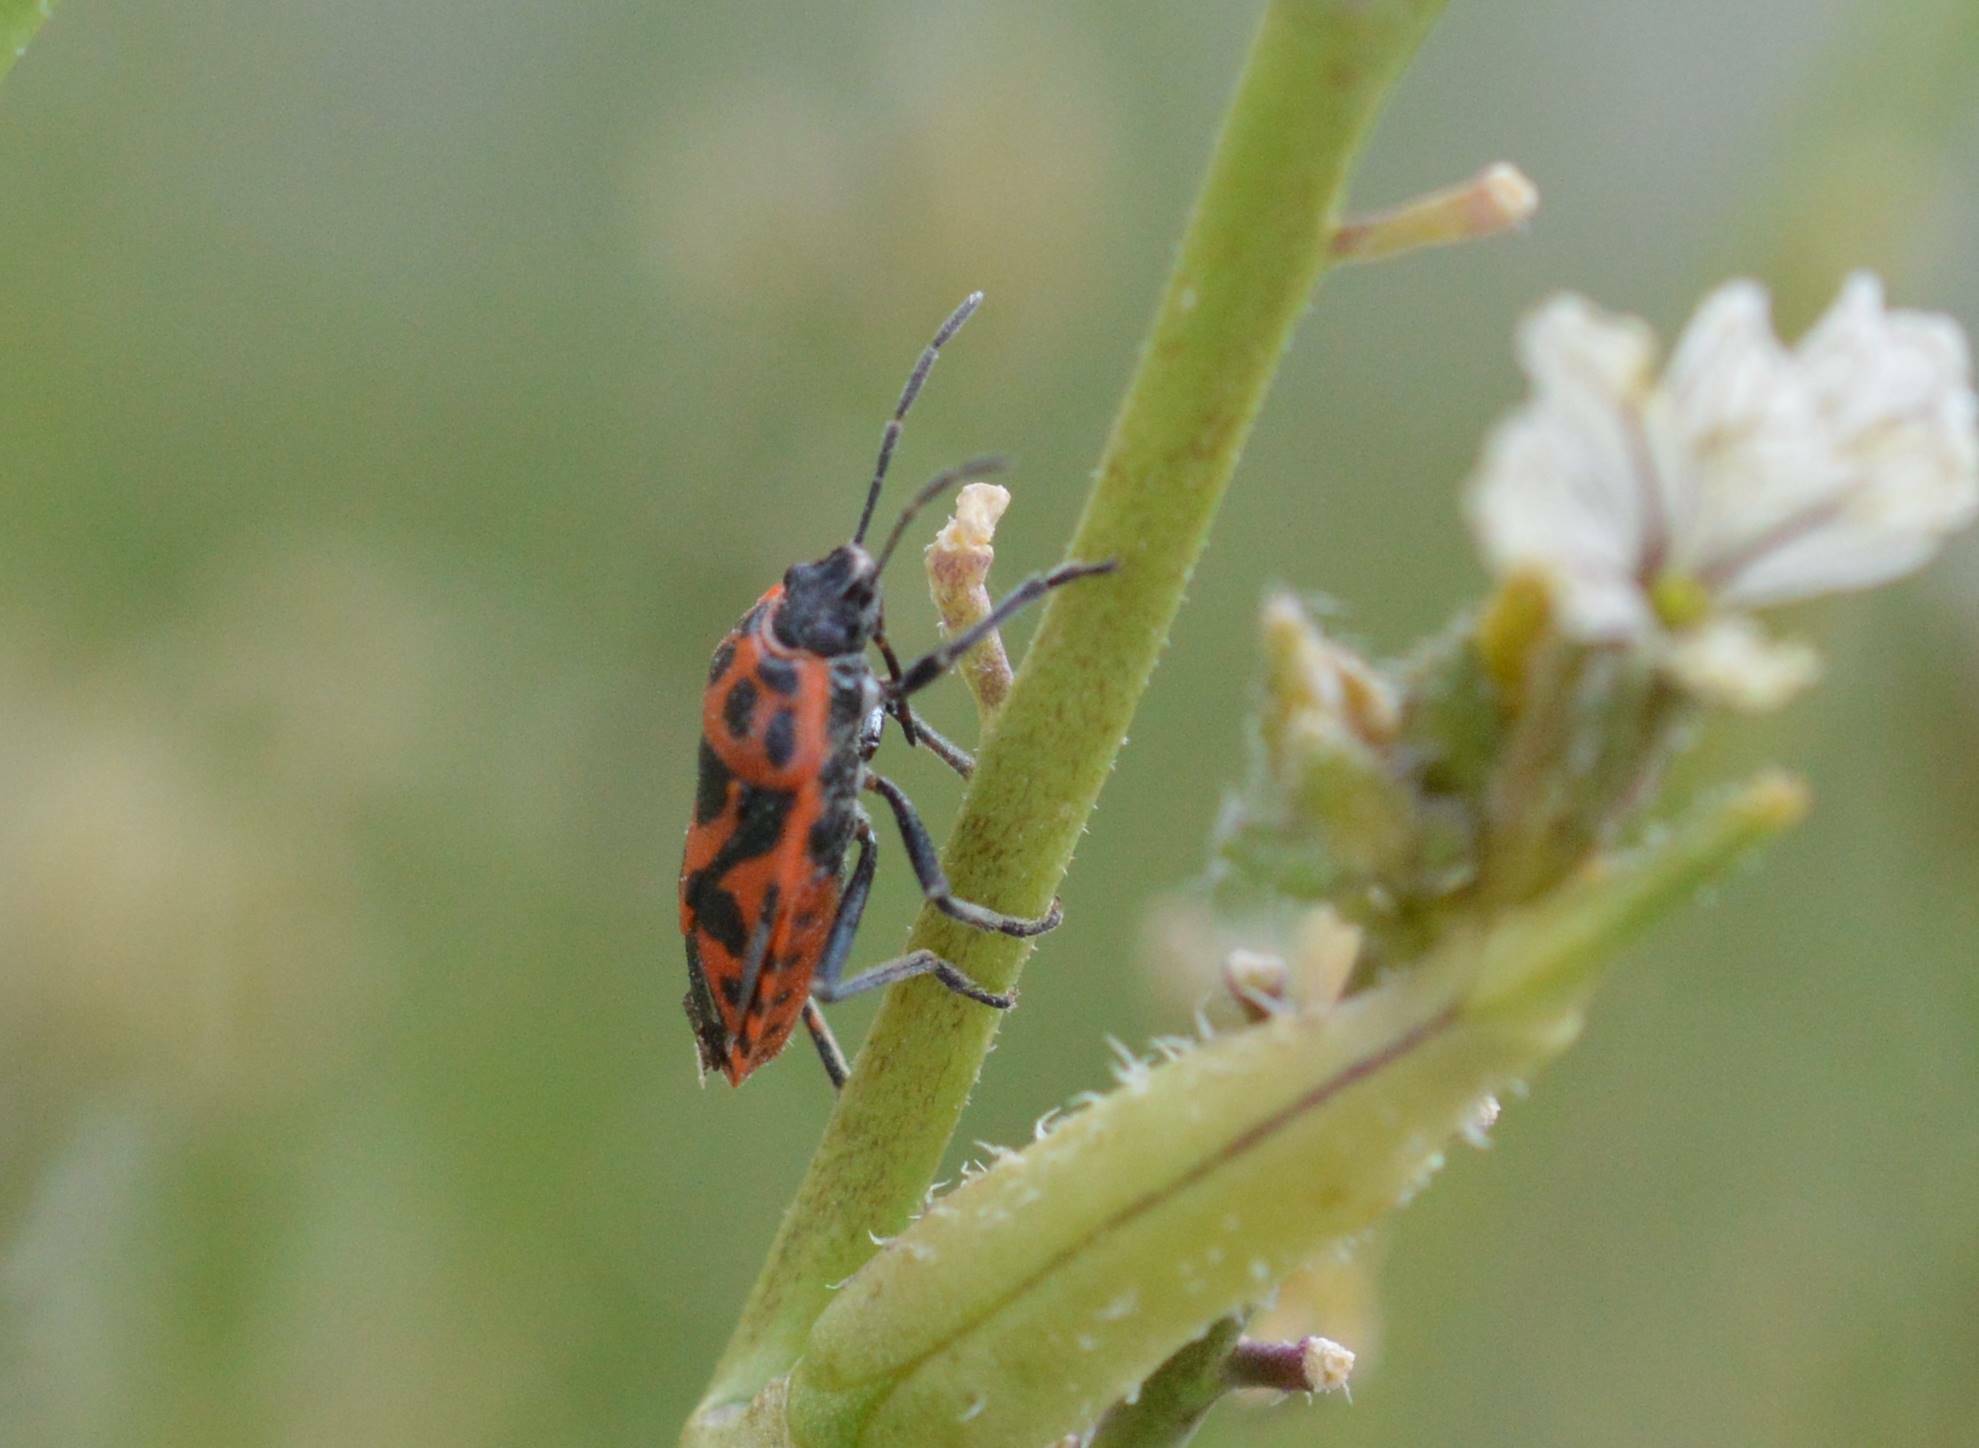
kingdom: Animalia
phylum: Arthropoda
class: Insecta
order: Hemiptera
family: Pentatomidae
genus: Eurydema
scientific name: Eurydema ornata
